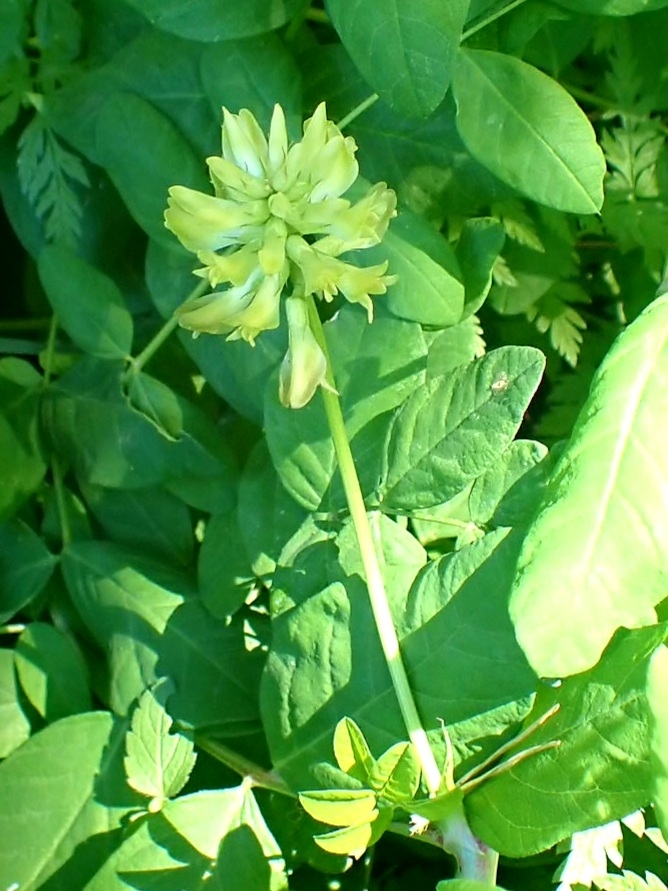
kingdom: Plantae
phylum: Tracheophyta
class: Magnoliopsida
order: Fabales
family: Fabaceae
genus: Astragalus
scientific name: Astragalus glycyphyllos
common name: Wild liquorice
